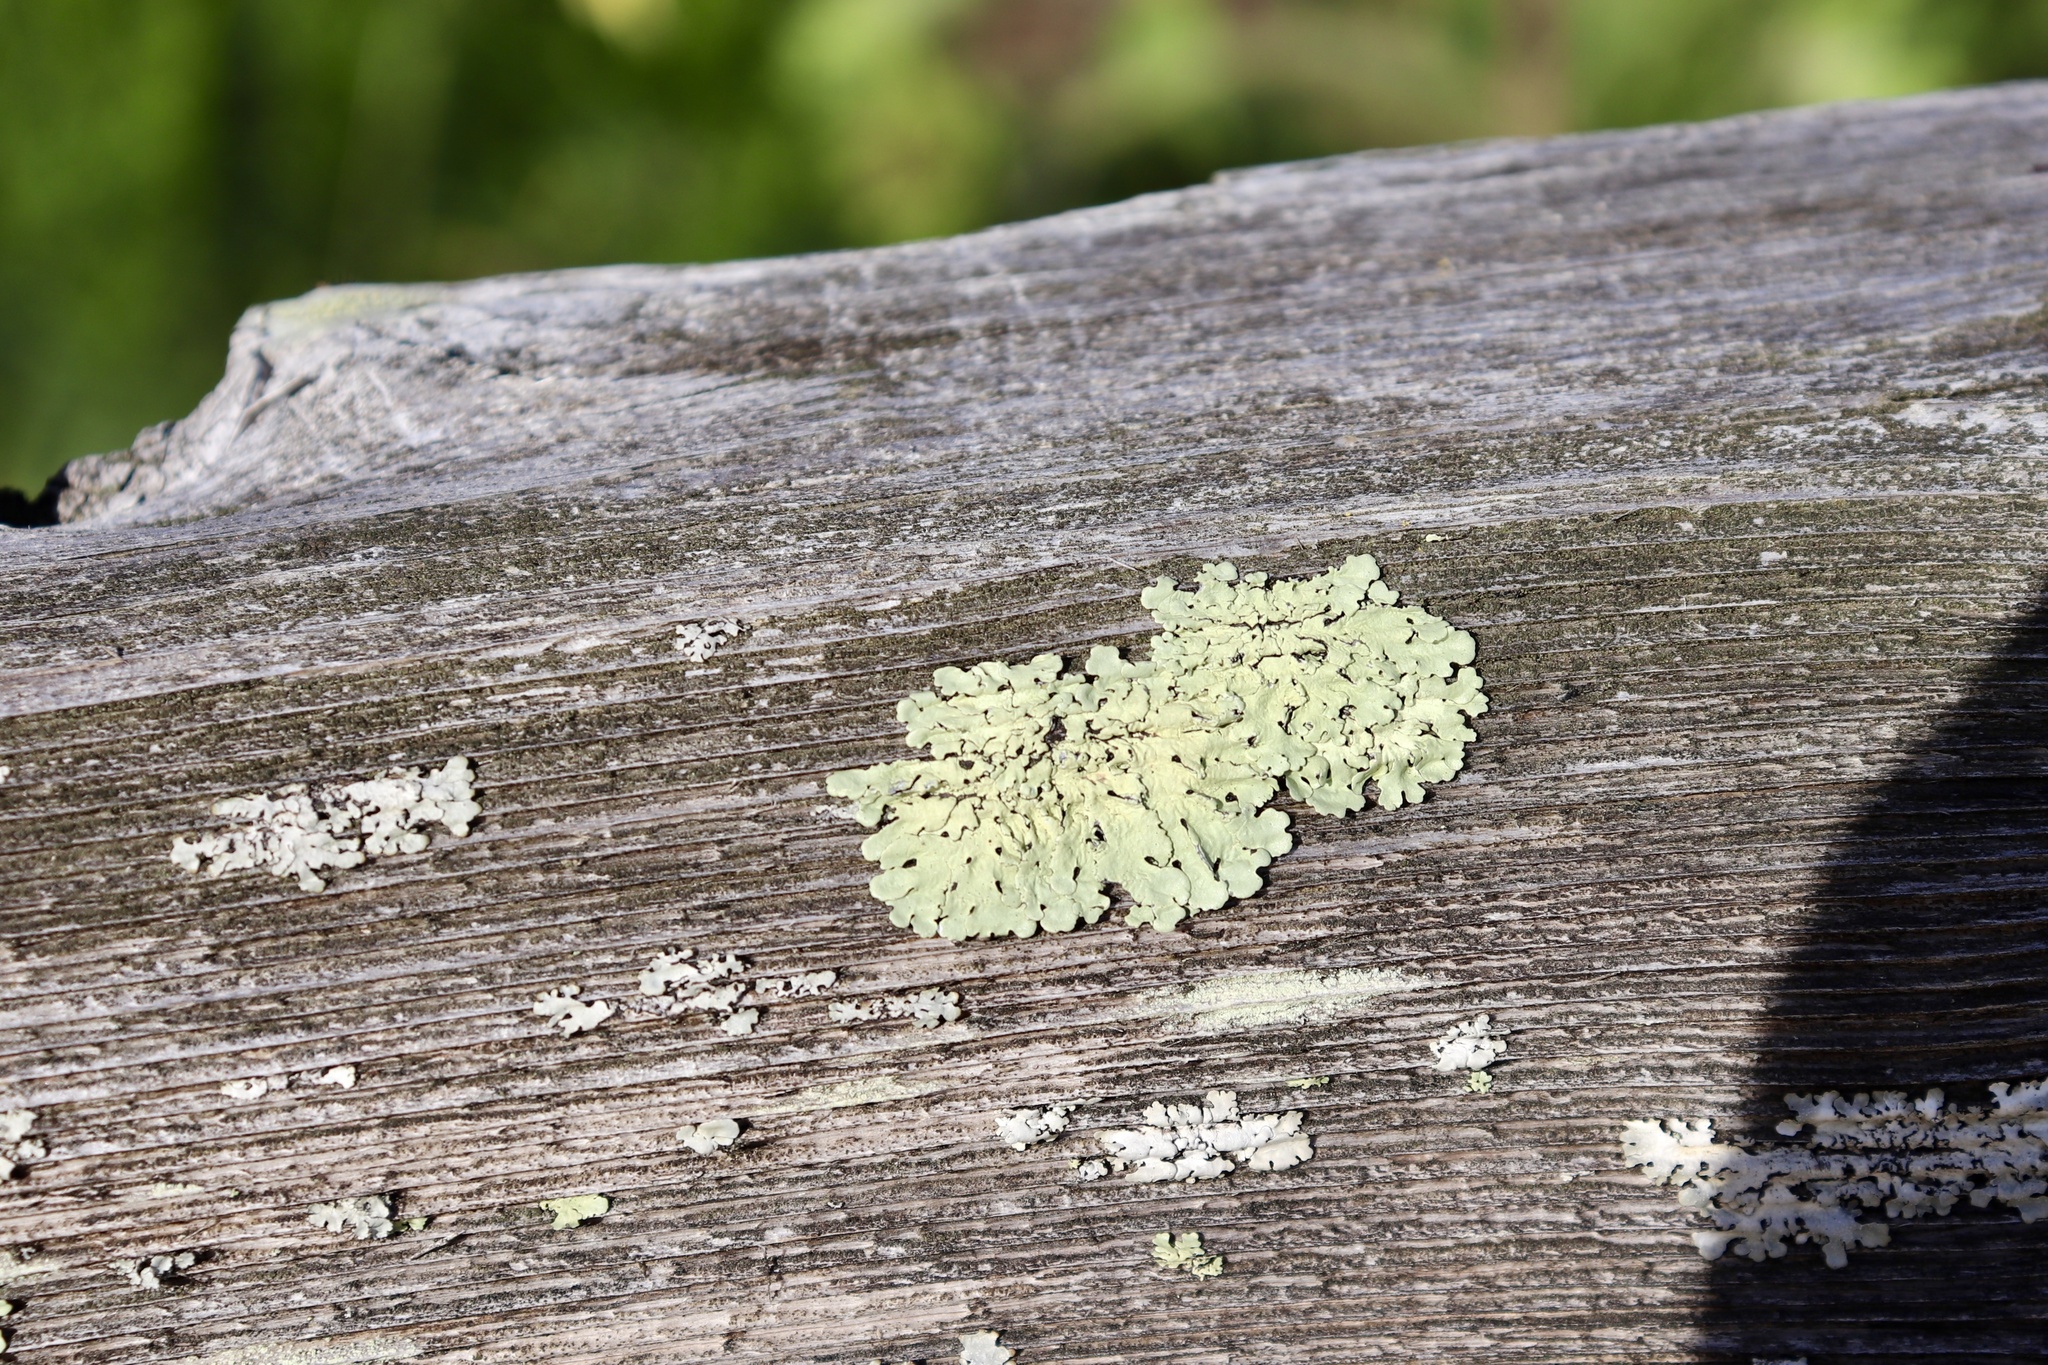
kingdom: Fungi
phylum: Ascomycota
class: Lecanoromycetes
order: Lecanorales
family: Parmeliaceae
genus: Flavoparmelia
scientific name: Flavoparmelia caperata
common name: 40-mile per hour lichen
